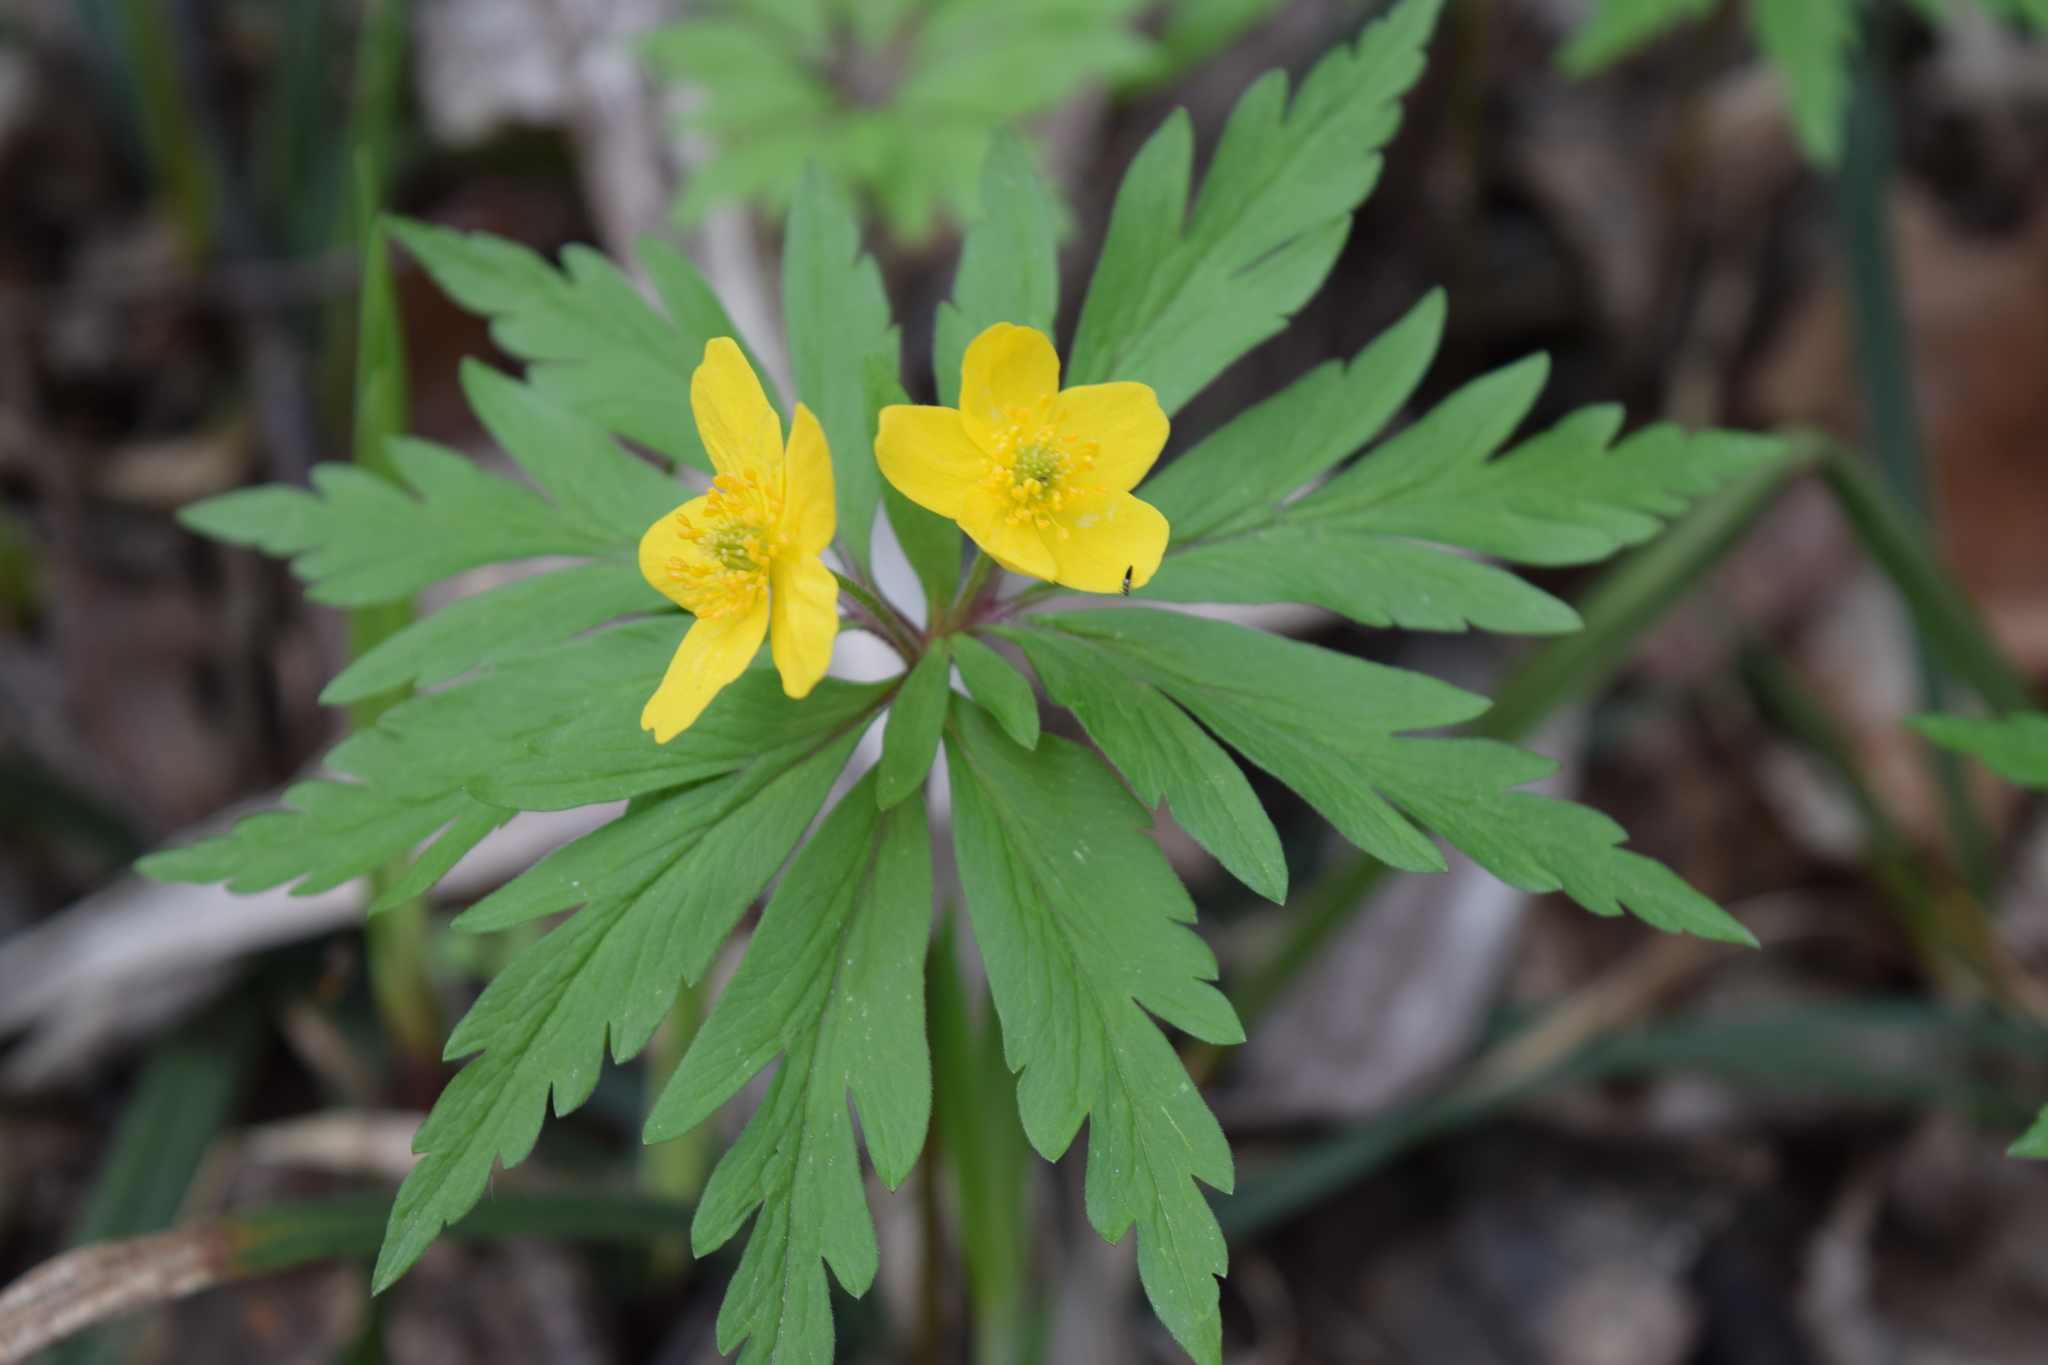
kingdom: Plantae
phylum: Tracheophyta
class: Magnoliopsida
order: Ranunculales
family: Ranunculaceae
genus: Anemone
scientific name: Anemone ranunculoides
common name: Yellow anemone
